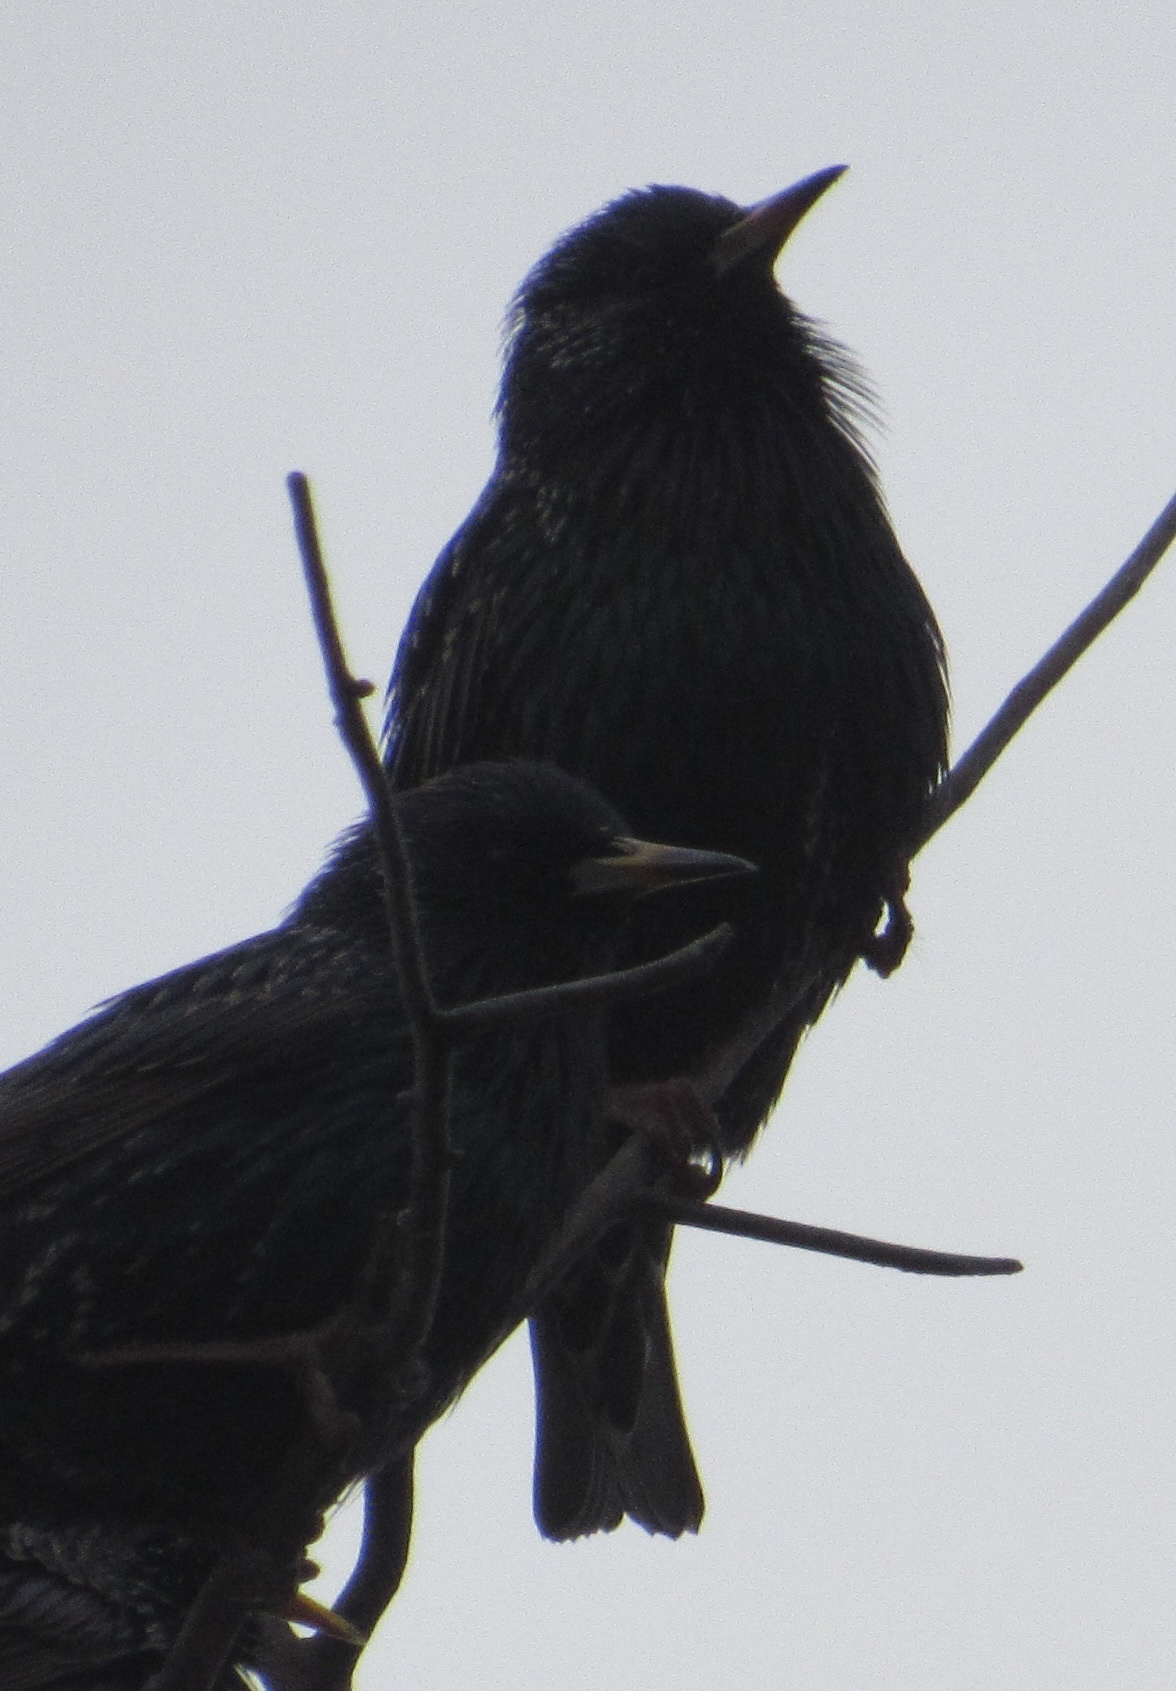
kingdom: Animalia
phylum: Chordata
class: Aves
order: Passeriformes
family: Sturnidae
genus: Sturnus
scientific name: Sturnus vulgaris
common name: Common starling
